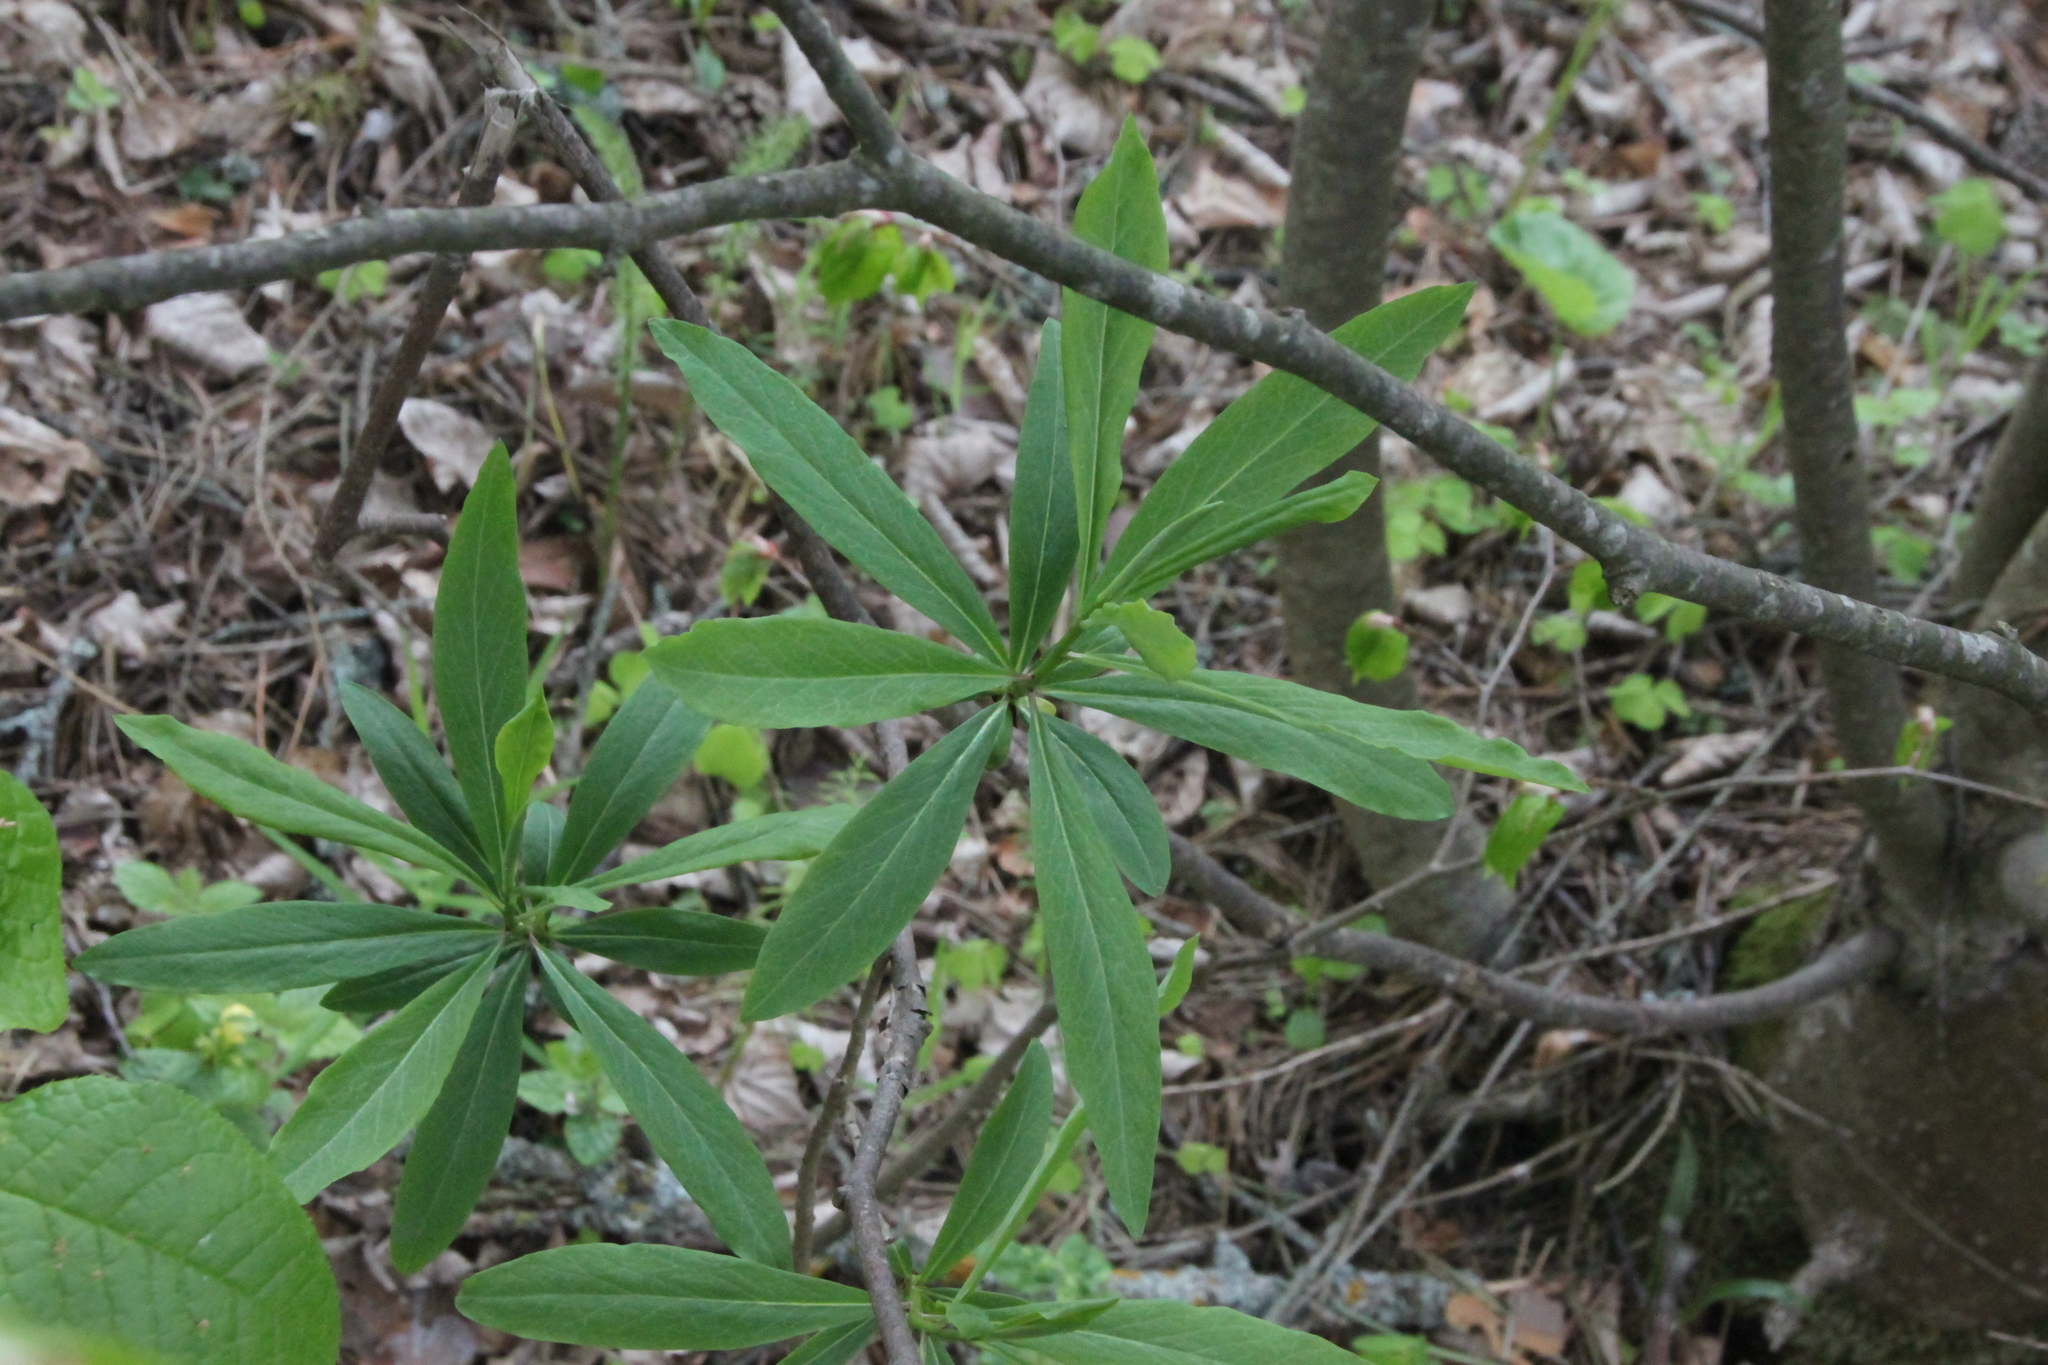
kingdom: Plantae
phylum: Tracheophyta
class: Magnoliopsida
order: Malvales
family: Thymelaeaceae
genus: Daphne
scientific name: Daphne mezereum
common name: Mezereon
